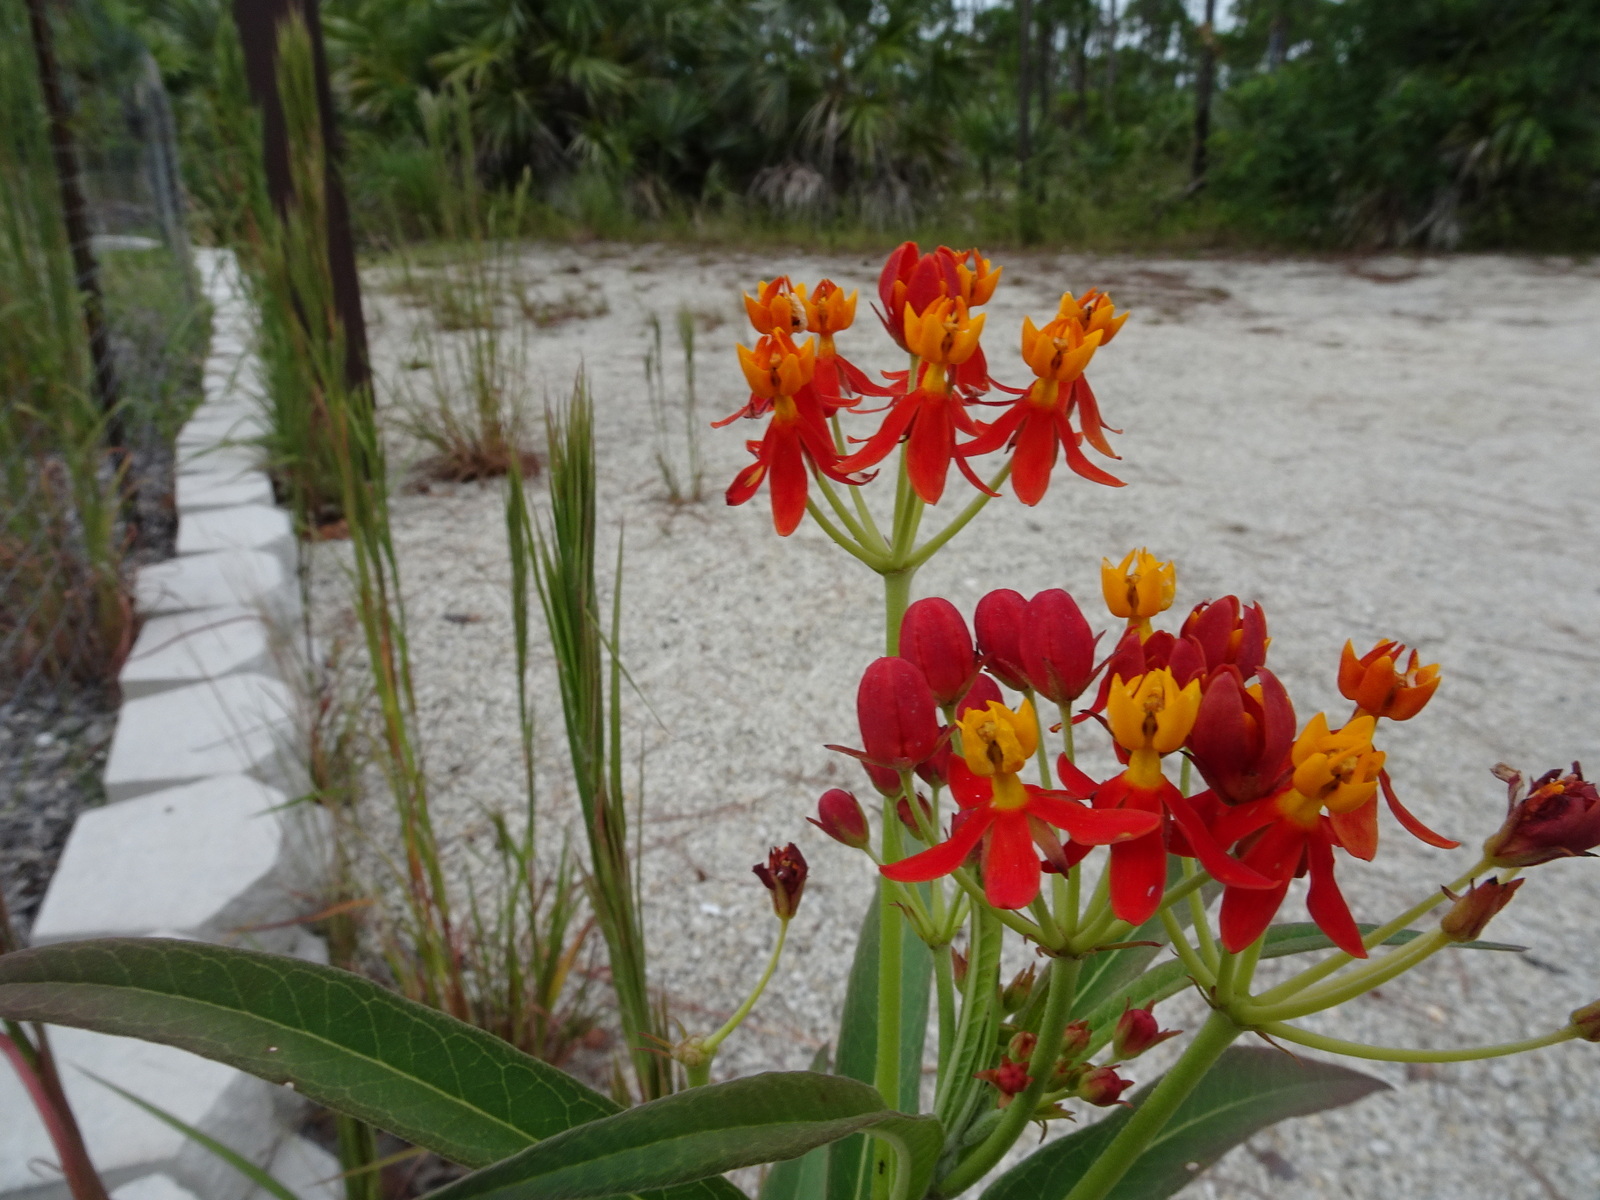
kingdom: Plantae
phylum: Tracheophyta
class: Magnoliopsida
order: Gentianales
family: Apocynaceae
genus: Asclepias
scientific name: Asclepias curassavica
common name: Bloodflower
